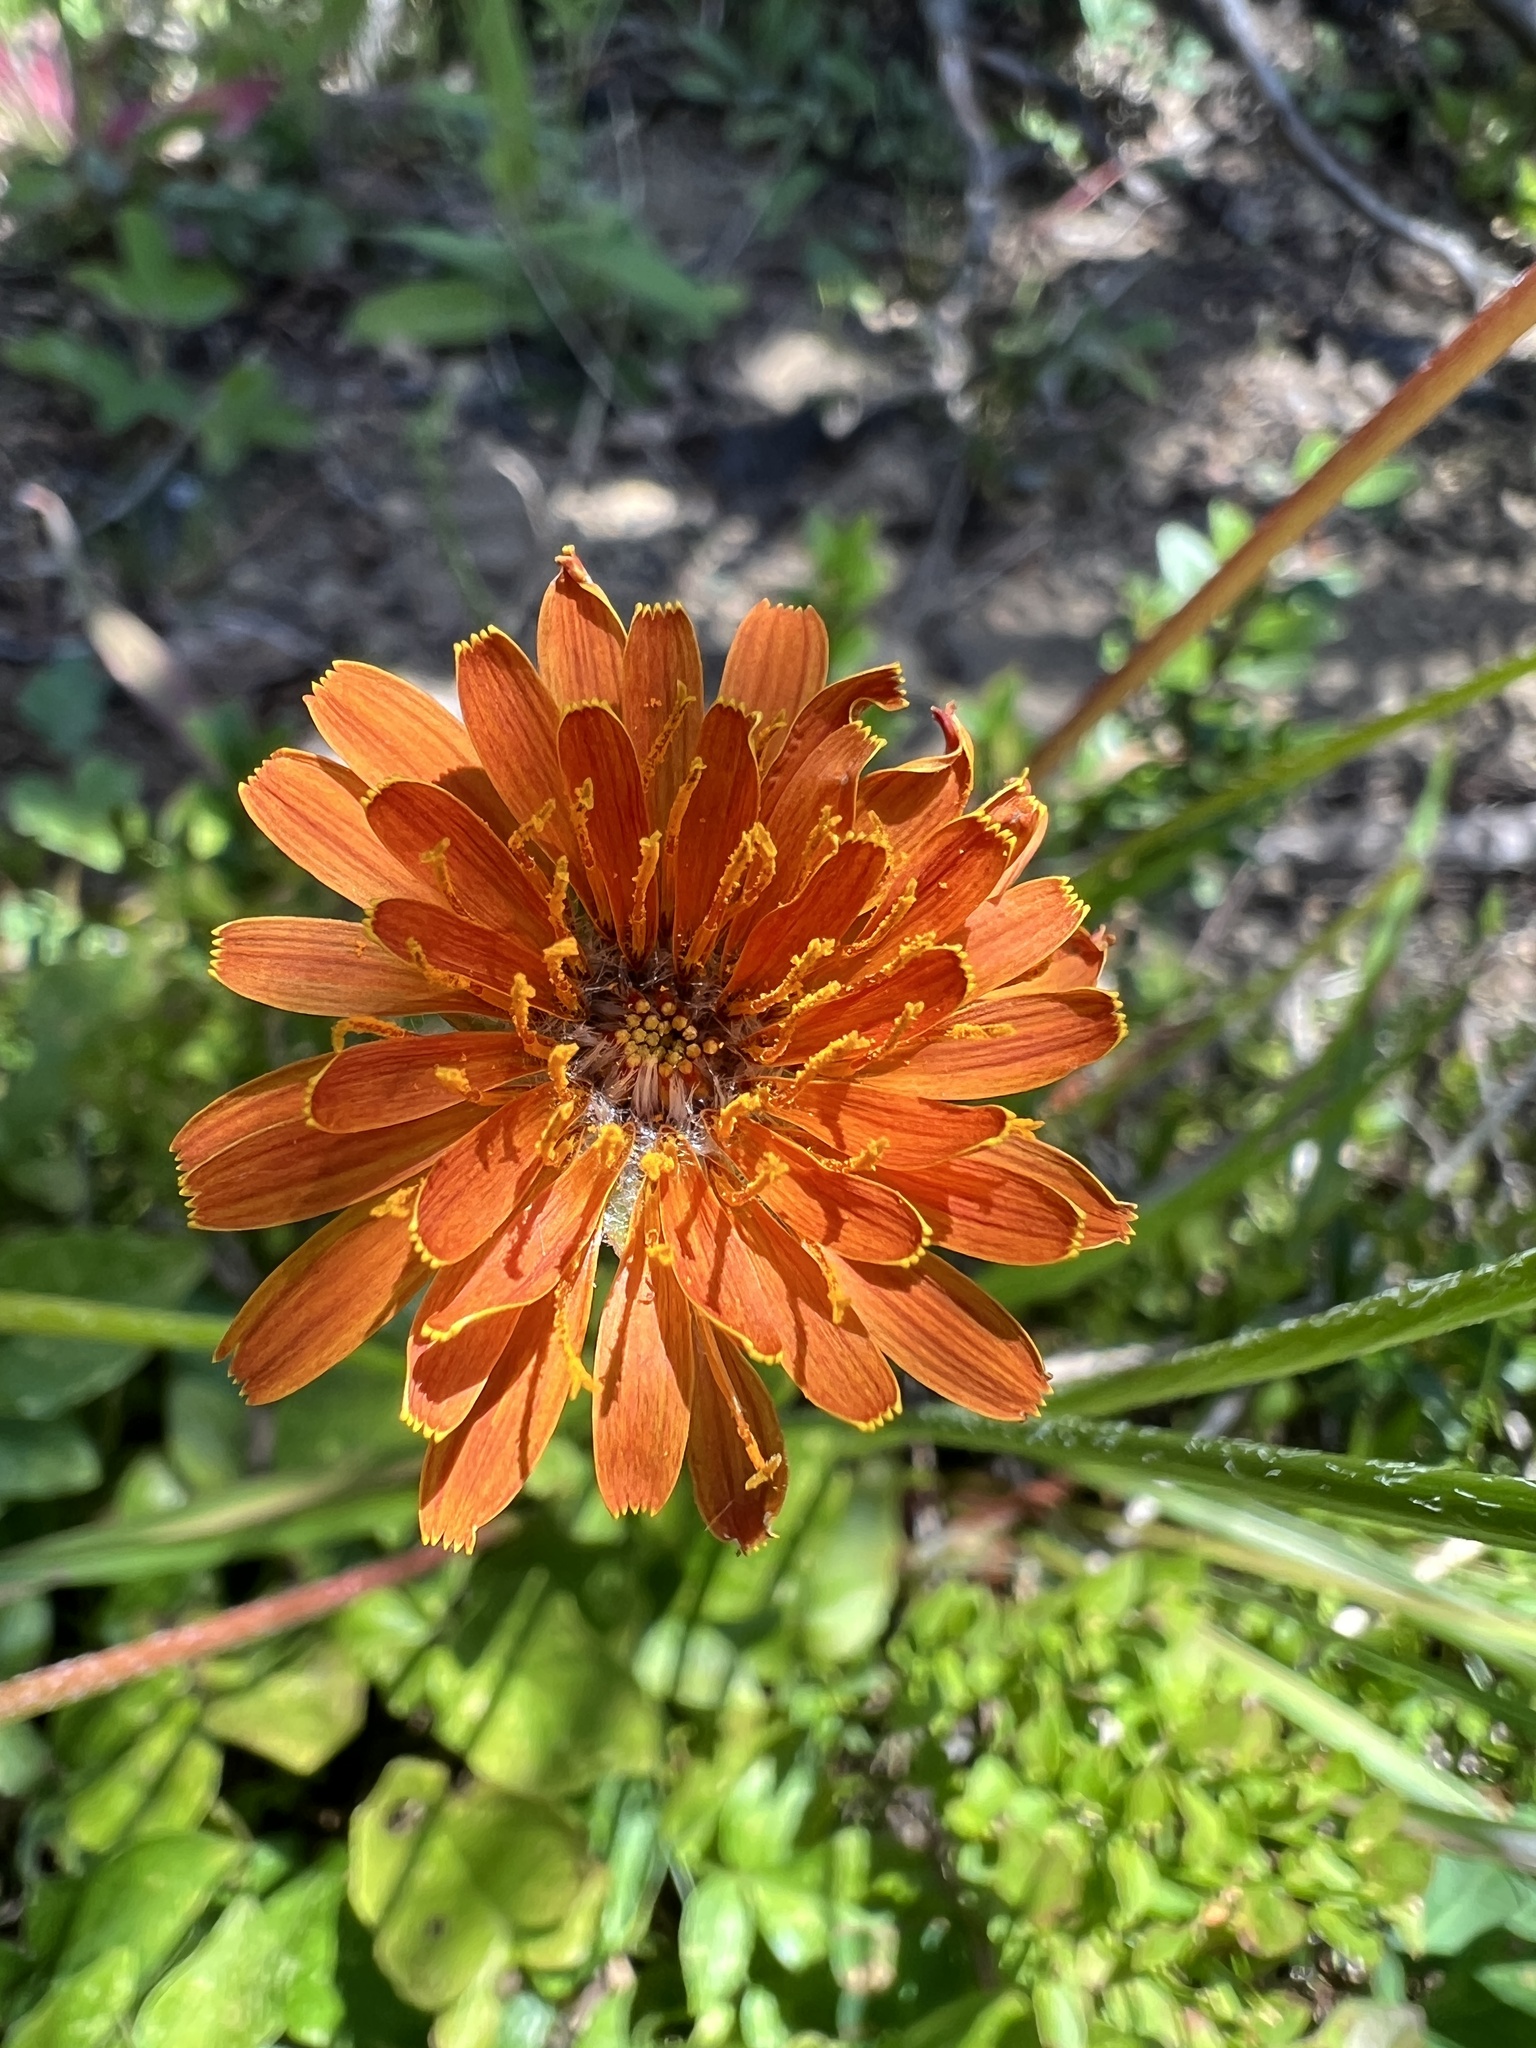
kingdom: Plantae
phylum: Tracheophyta
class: Magnoliopsida
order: Asterales
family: Asteraceae
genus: Agoseris
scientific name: Agoseris aurantiaca
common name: Mountain agoseris
